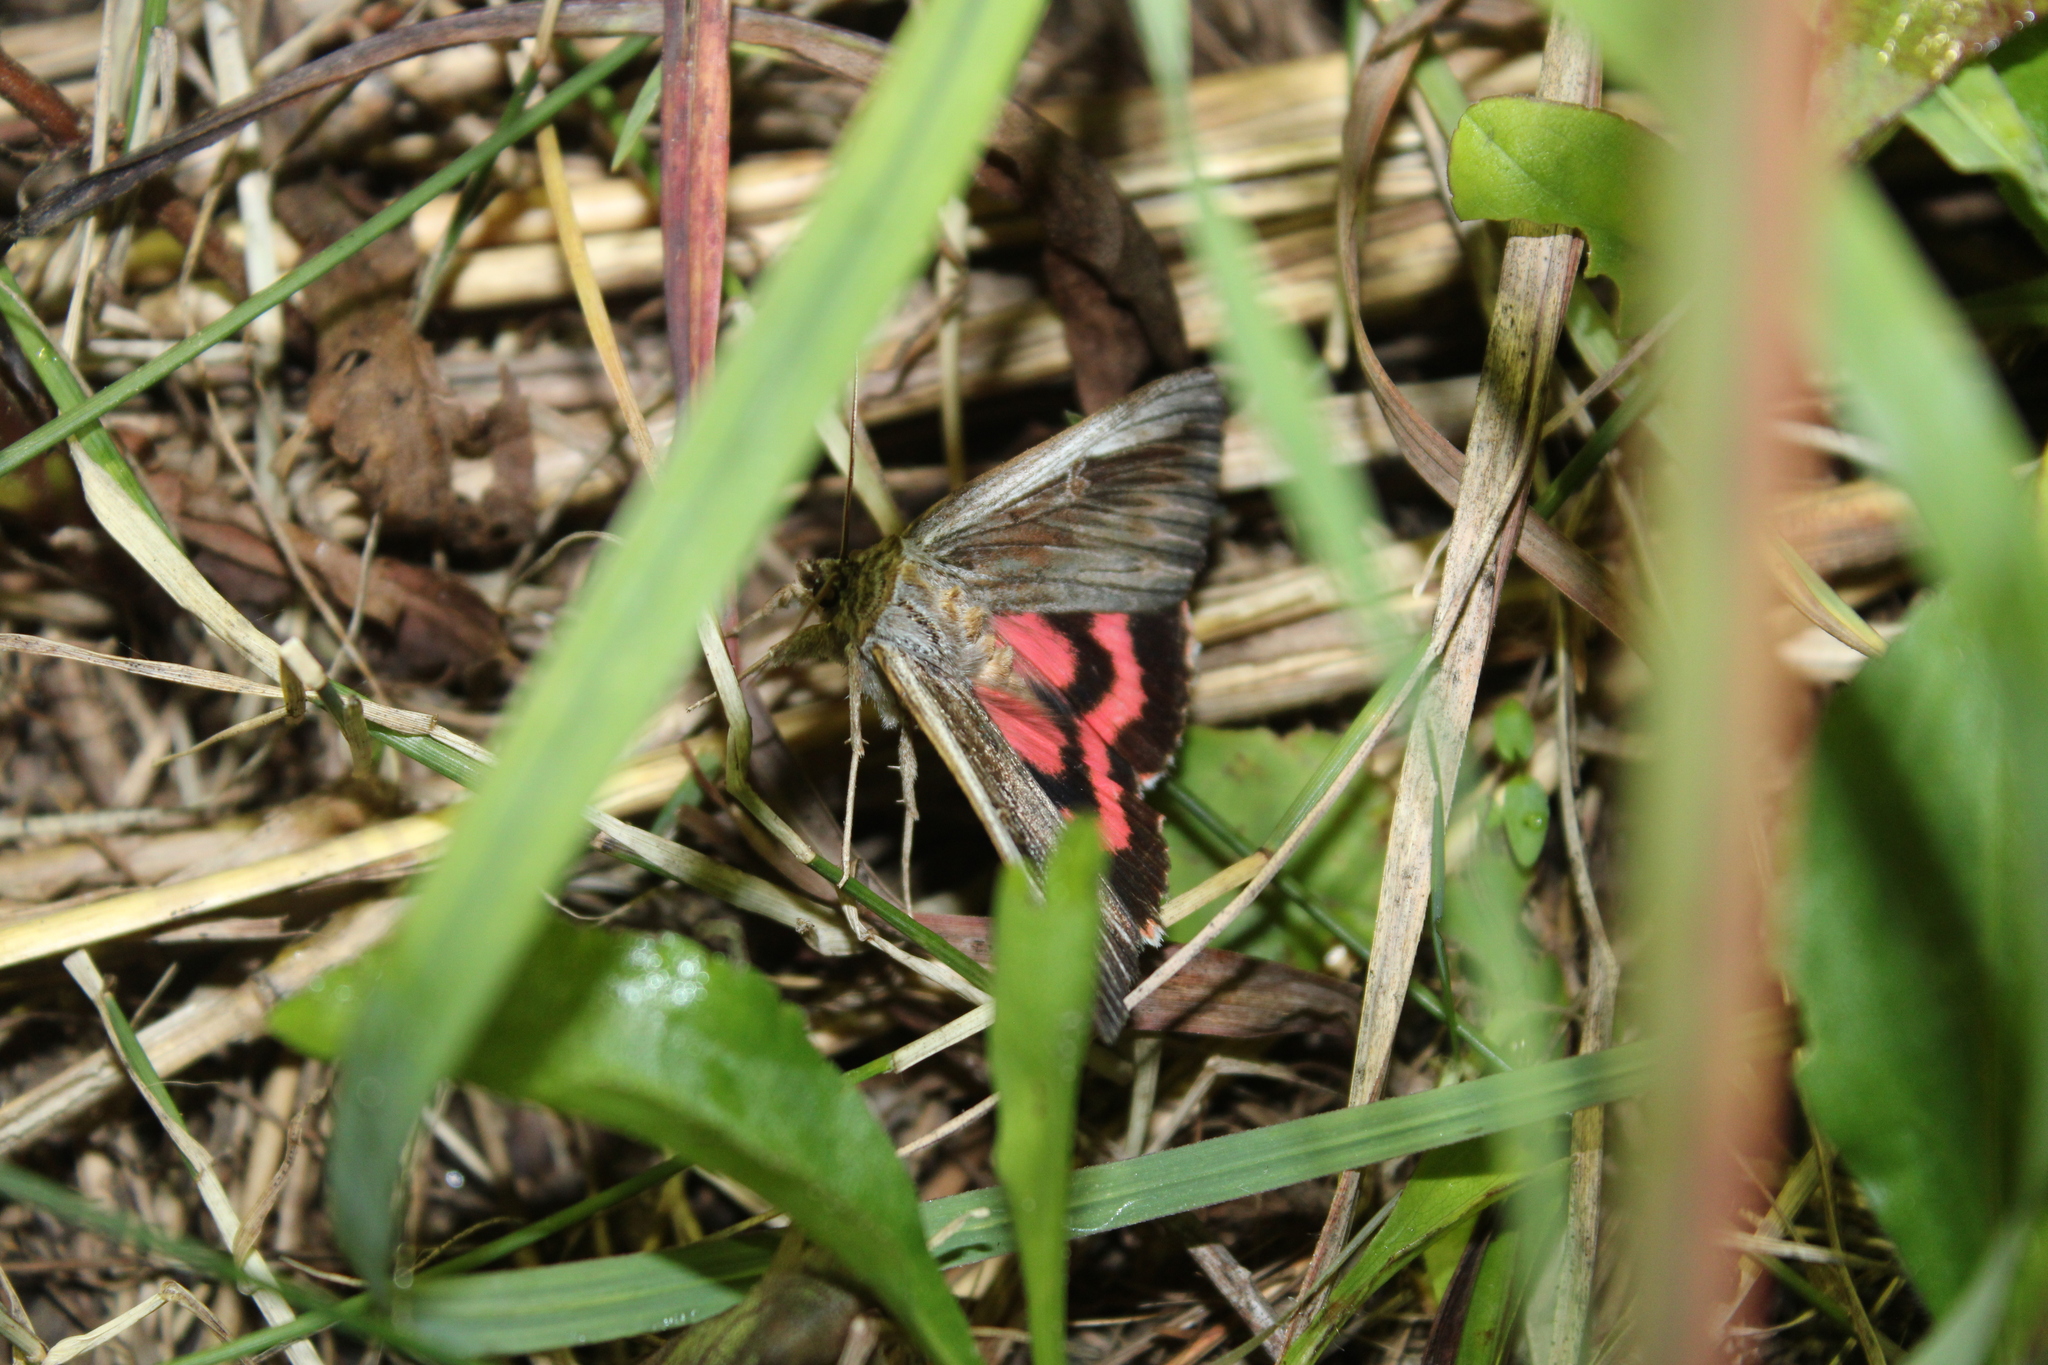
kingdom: Animalia
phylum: Arthropoda
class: Insecta
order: Lepidoptera
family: Erebidae
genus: Catocala
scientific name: Catocala herodias
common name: Pine barrens underwing
